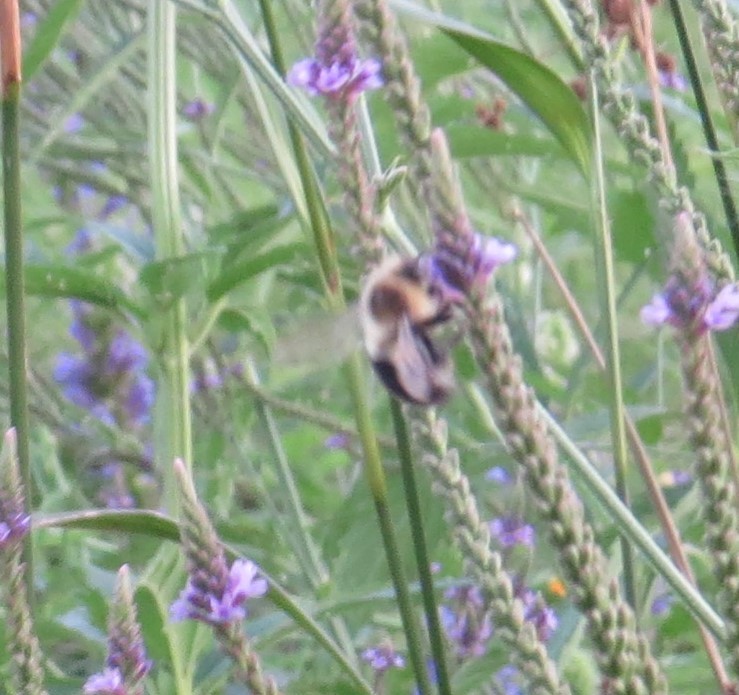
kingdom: Animalia
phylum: Arthropoda
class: Insecta
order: Hymenoptera
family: Apidae
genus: Bombus
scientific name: Bombus impatiens
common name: Common eastern bumble bee
